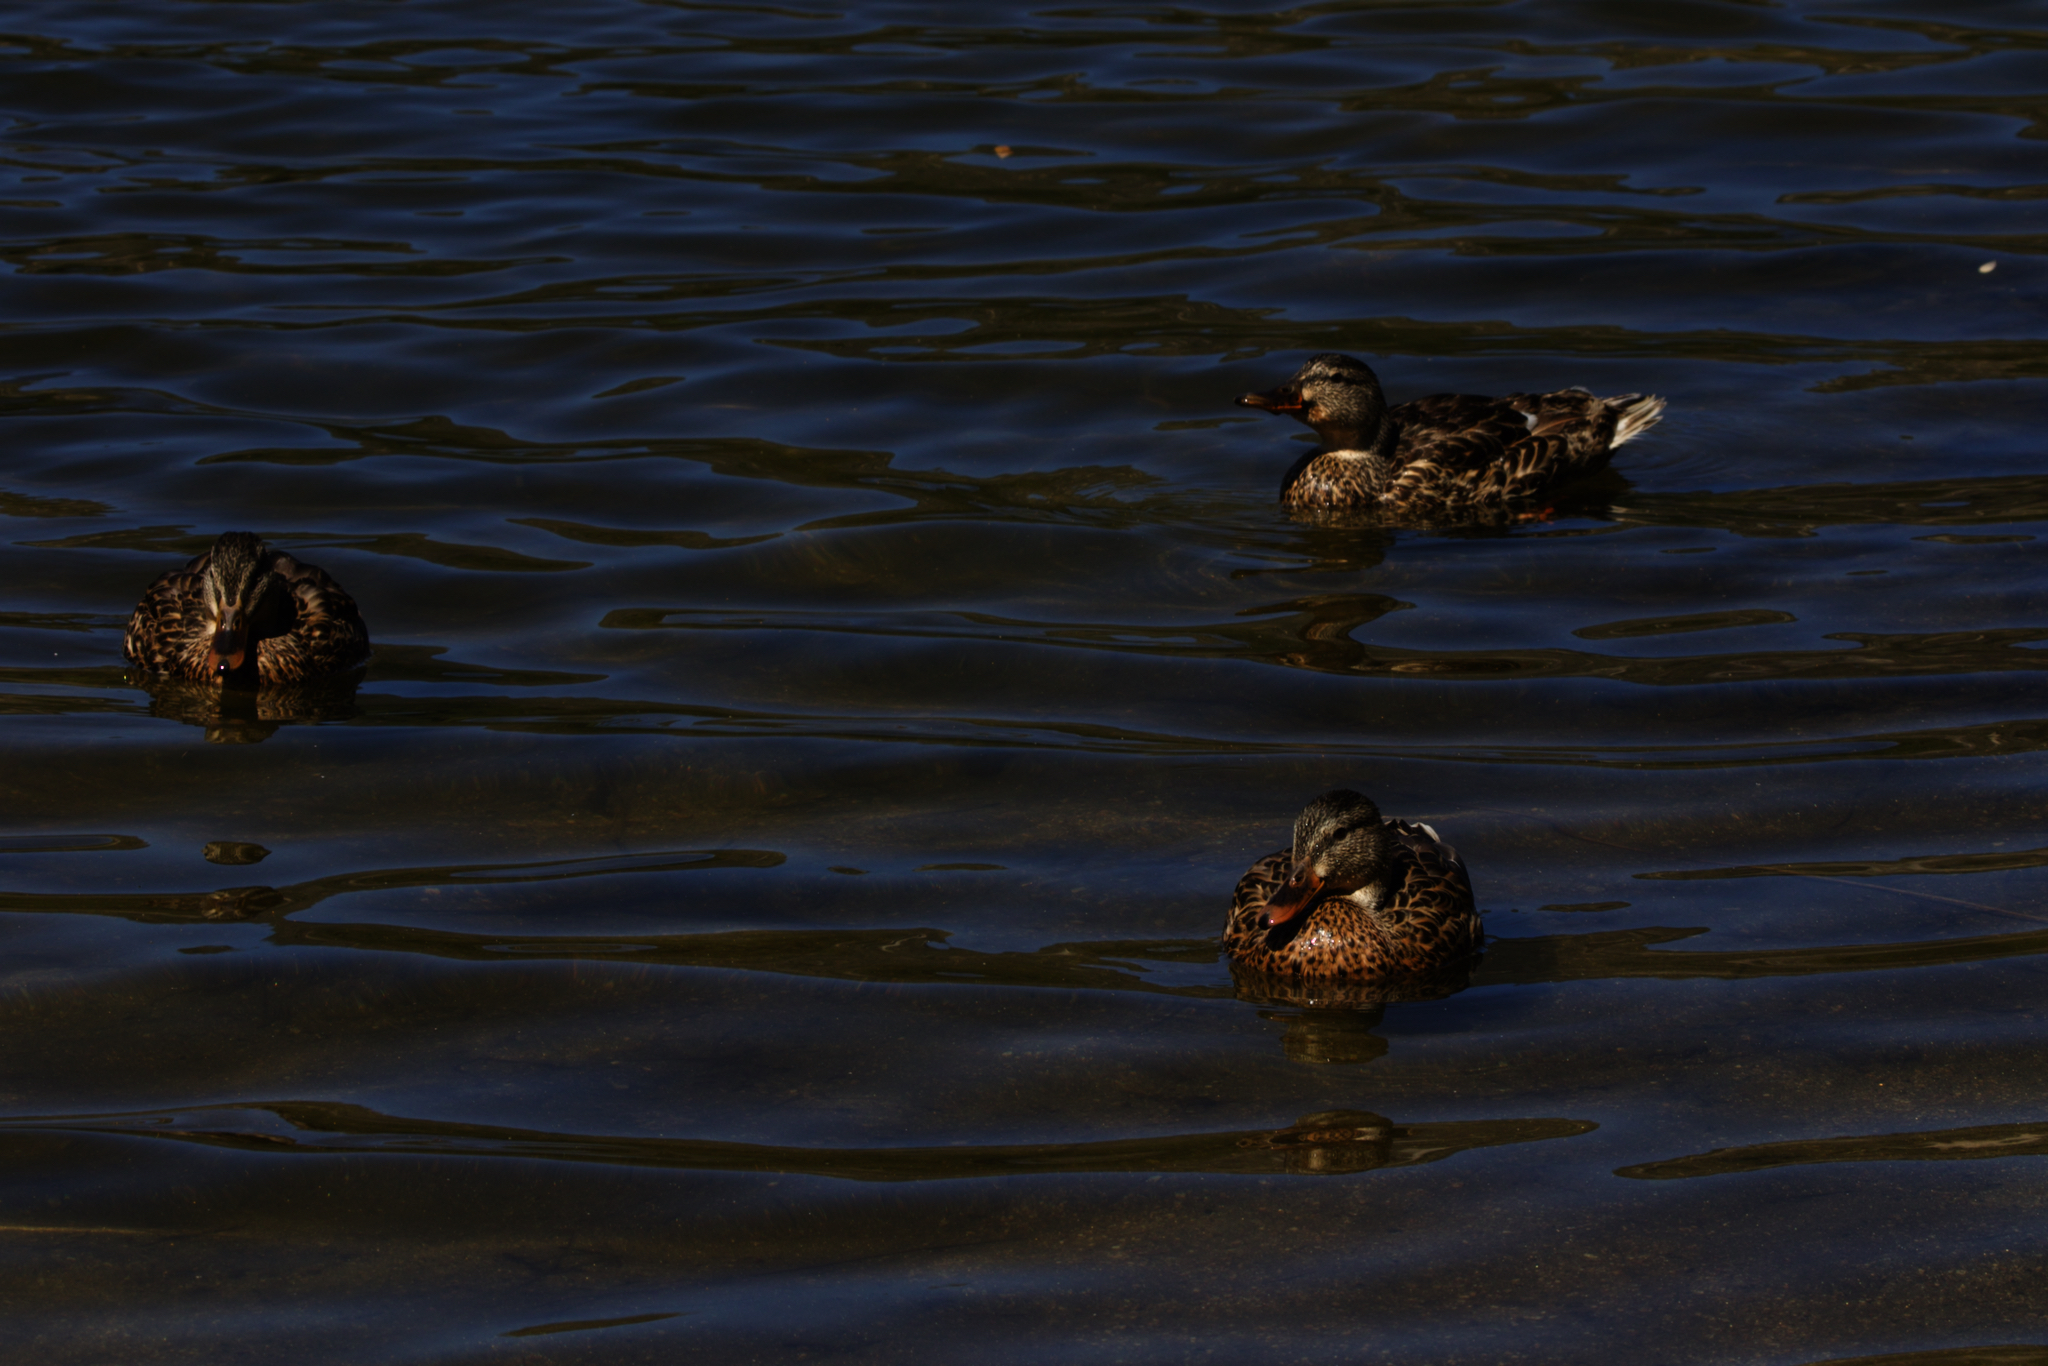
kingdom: Animalia
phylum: Chordata
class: Aves
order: Anseriformes
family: Anatidae
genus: Anas
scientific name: Anas platyrhynchos
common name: Mallard
